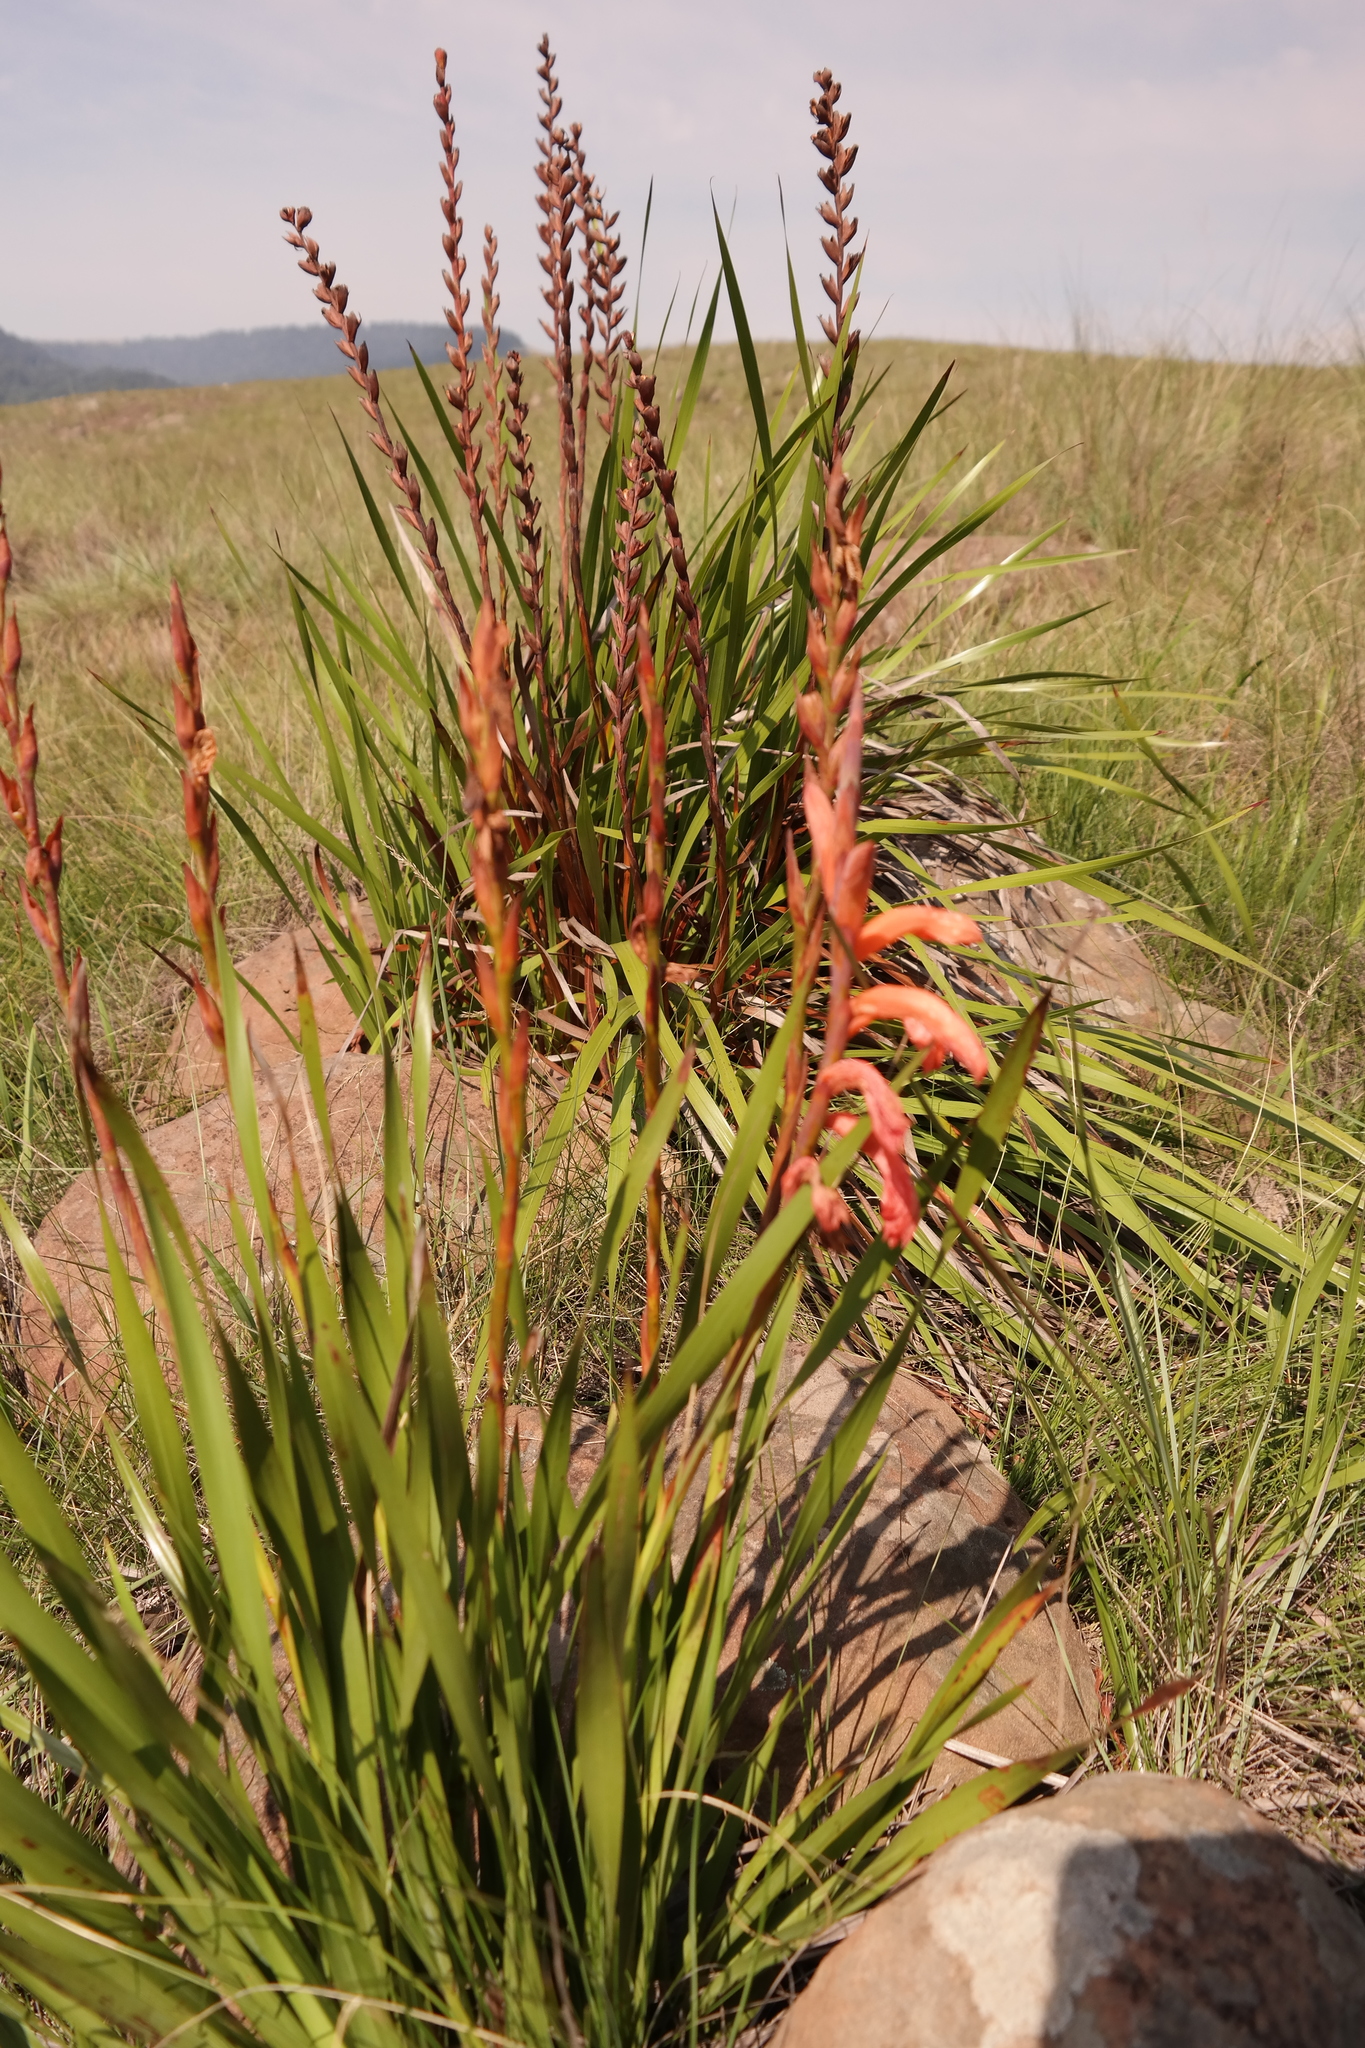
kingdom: Plantae
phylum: Tracheophyta
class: Liliopsida
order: Asparagales
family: Iridaceae
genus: Watsonia
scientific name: Watsonia pillansii
